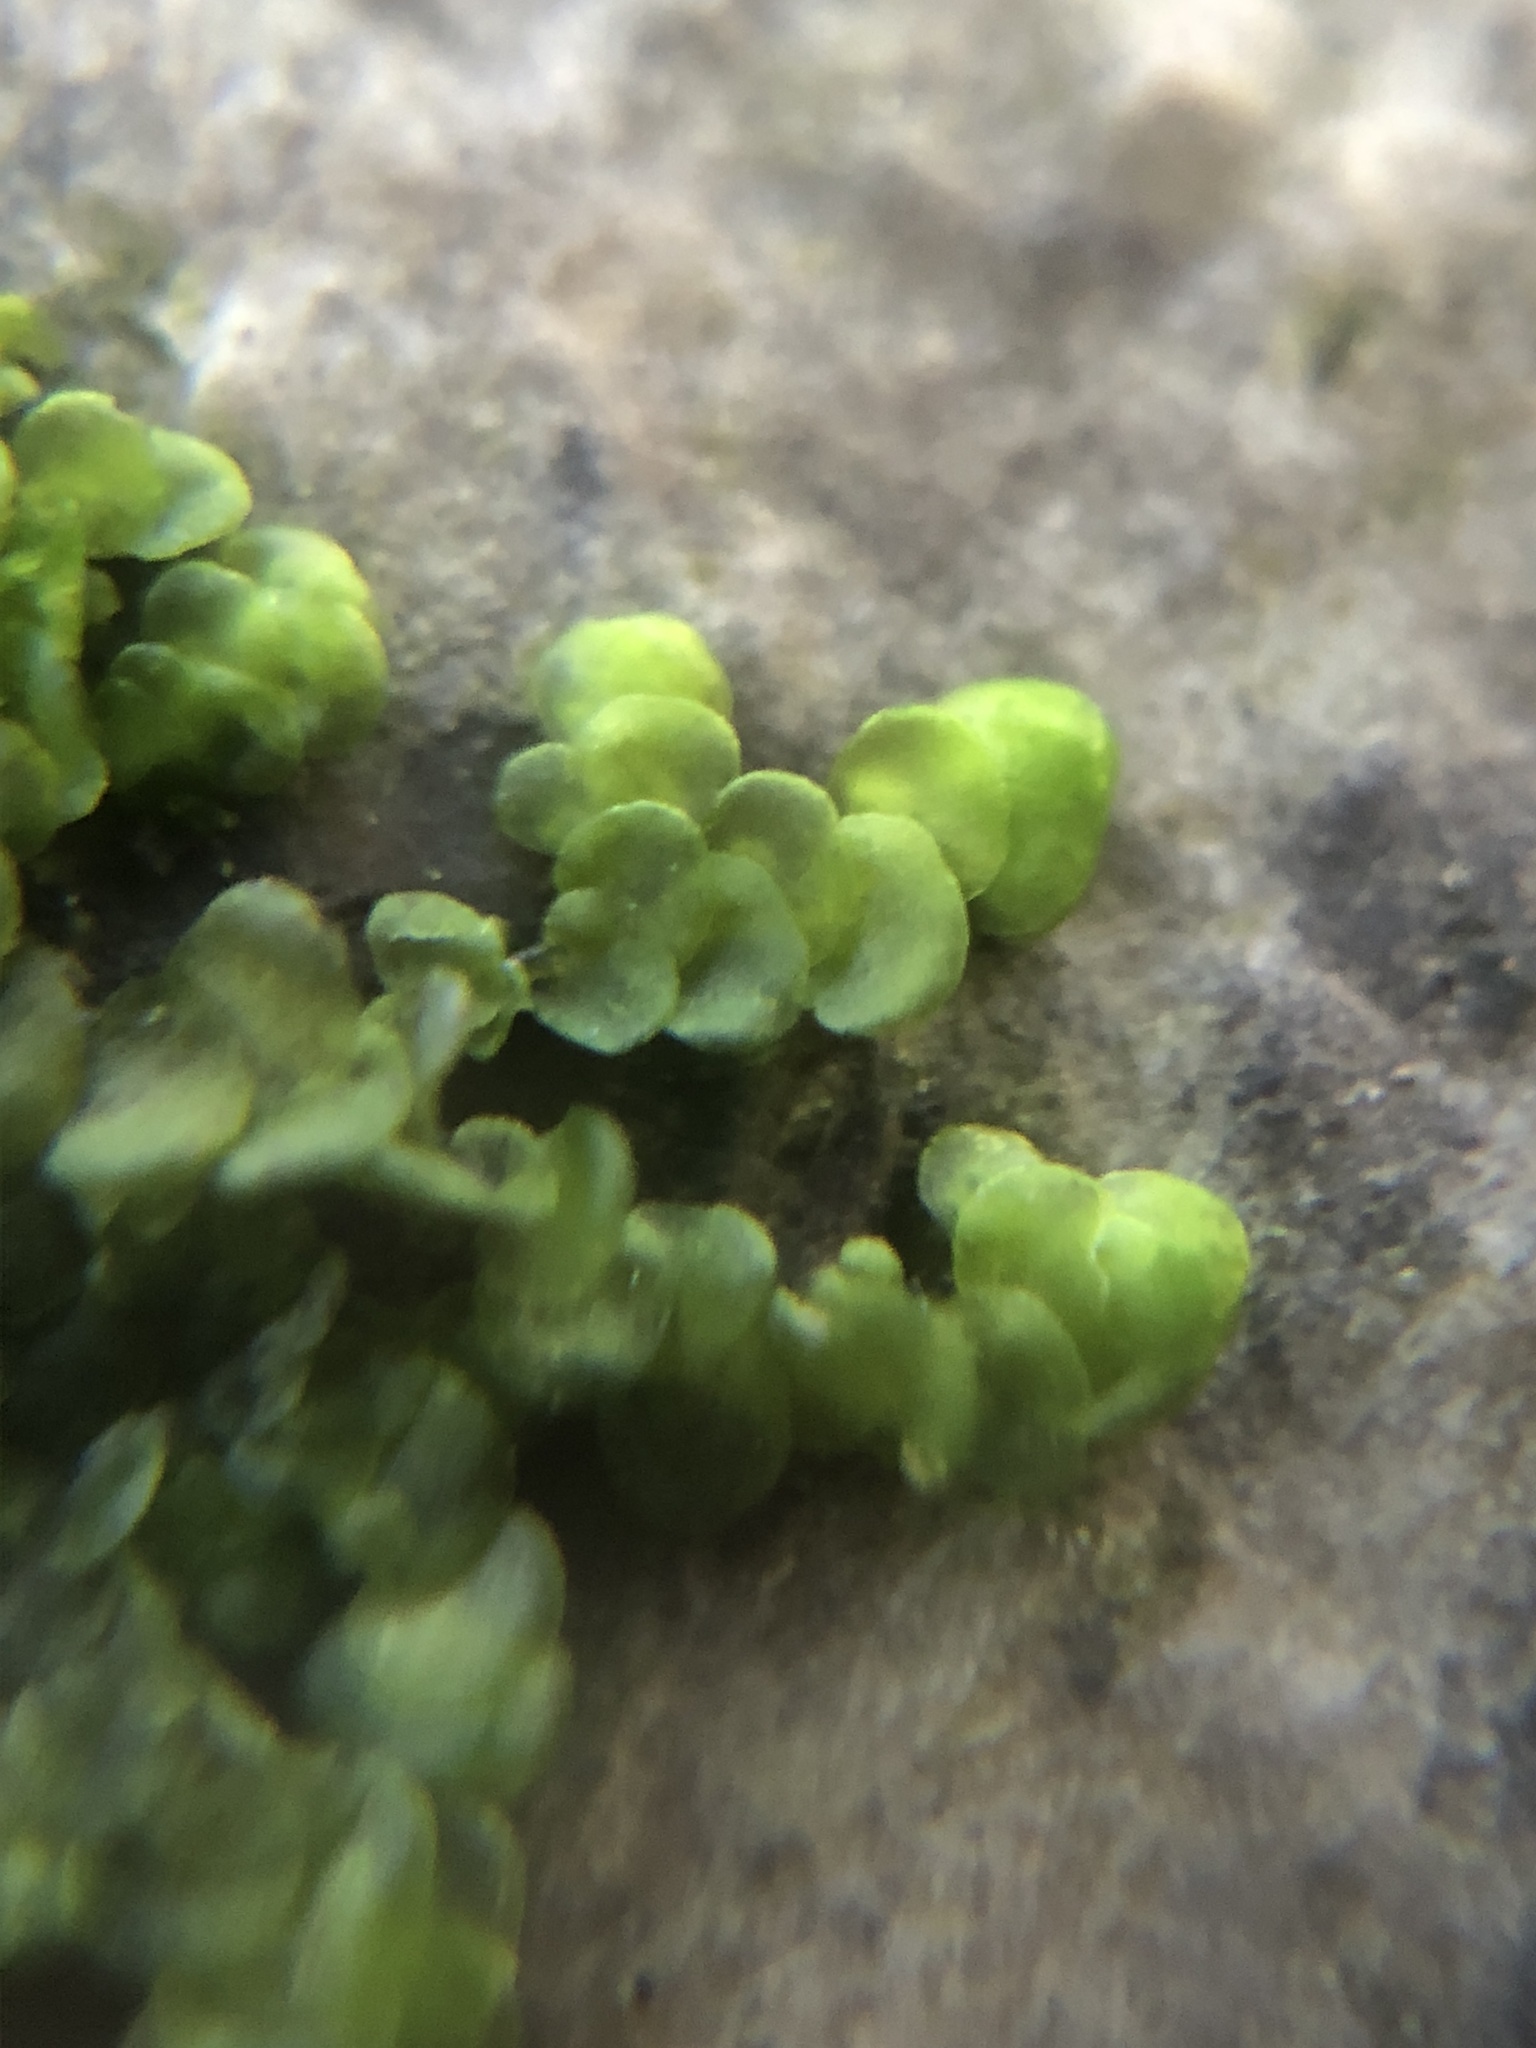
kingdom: Plantae
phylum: Marchantiophyta
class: Jungermanniopsida
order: Porellales
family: Frullaniaceae
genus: Frullania
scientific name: Frullania dilatata
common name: Dilated scalewort
